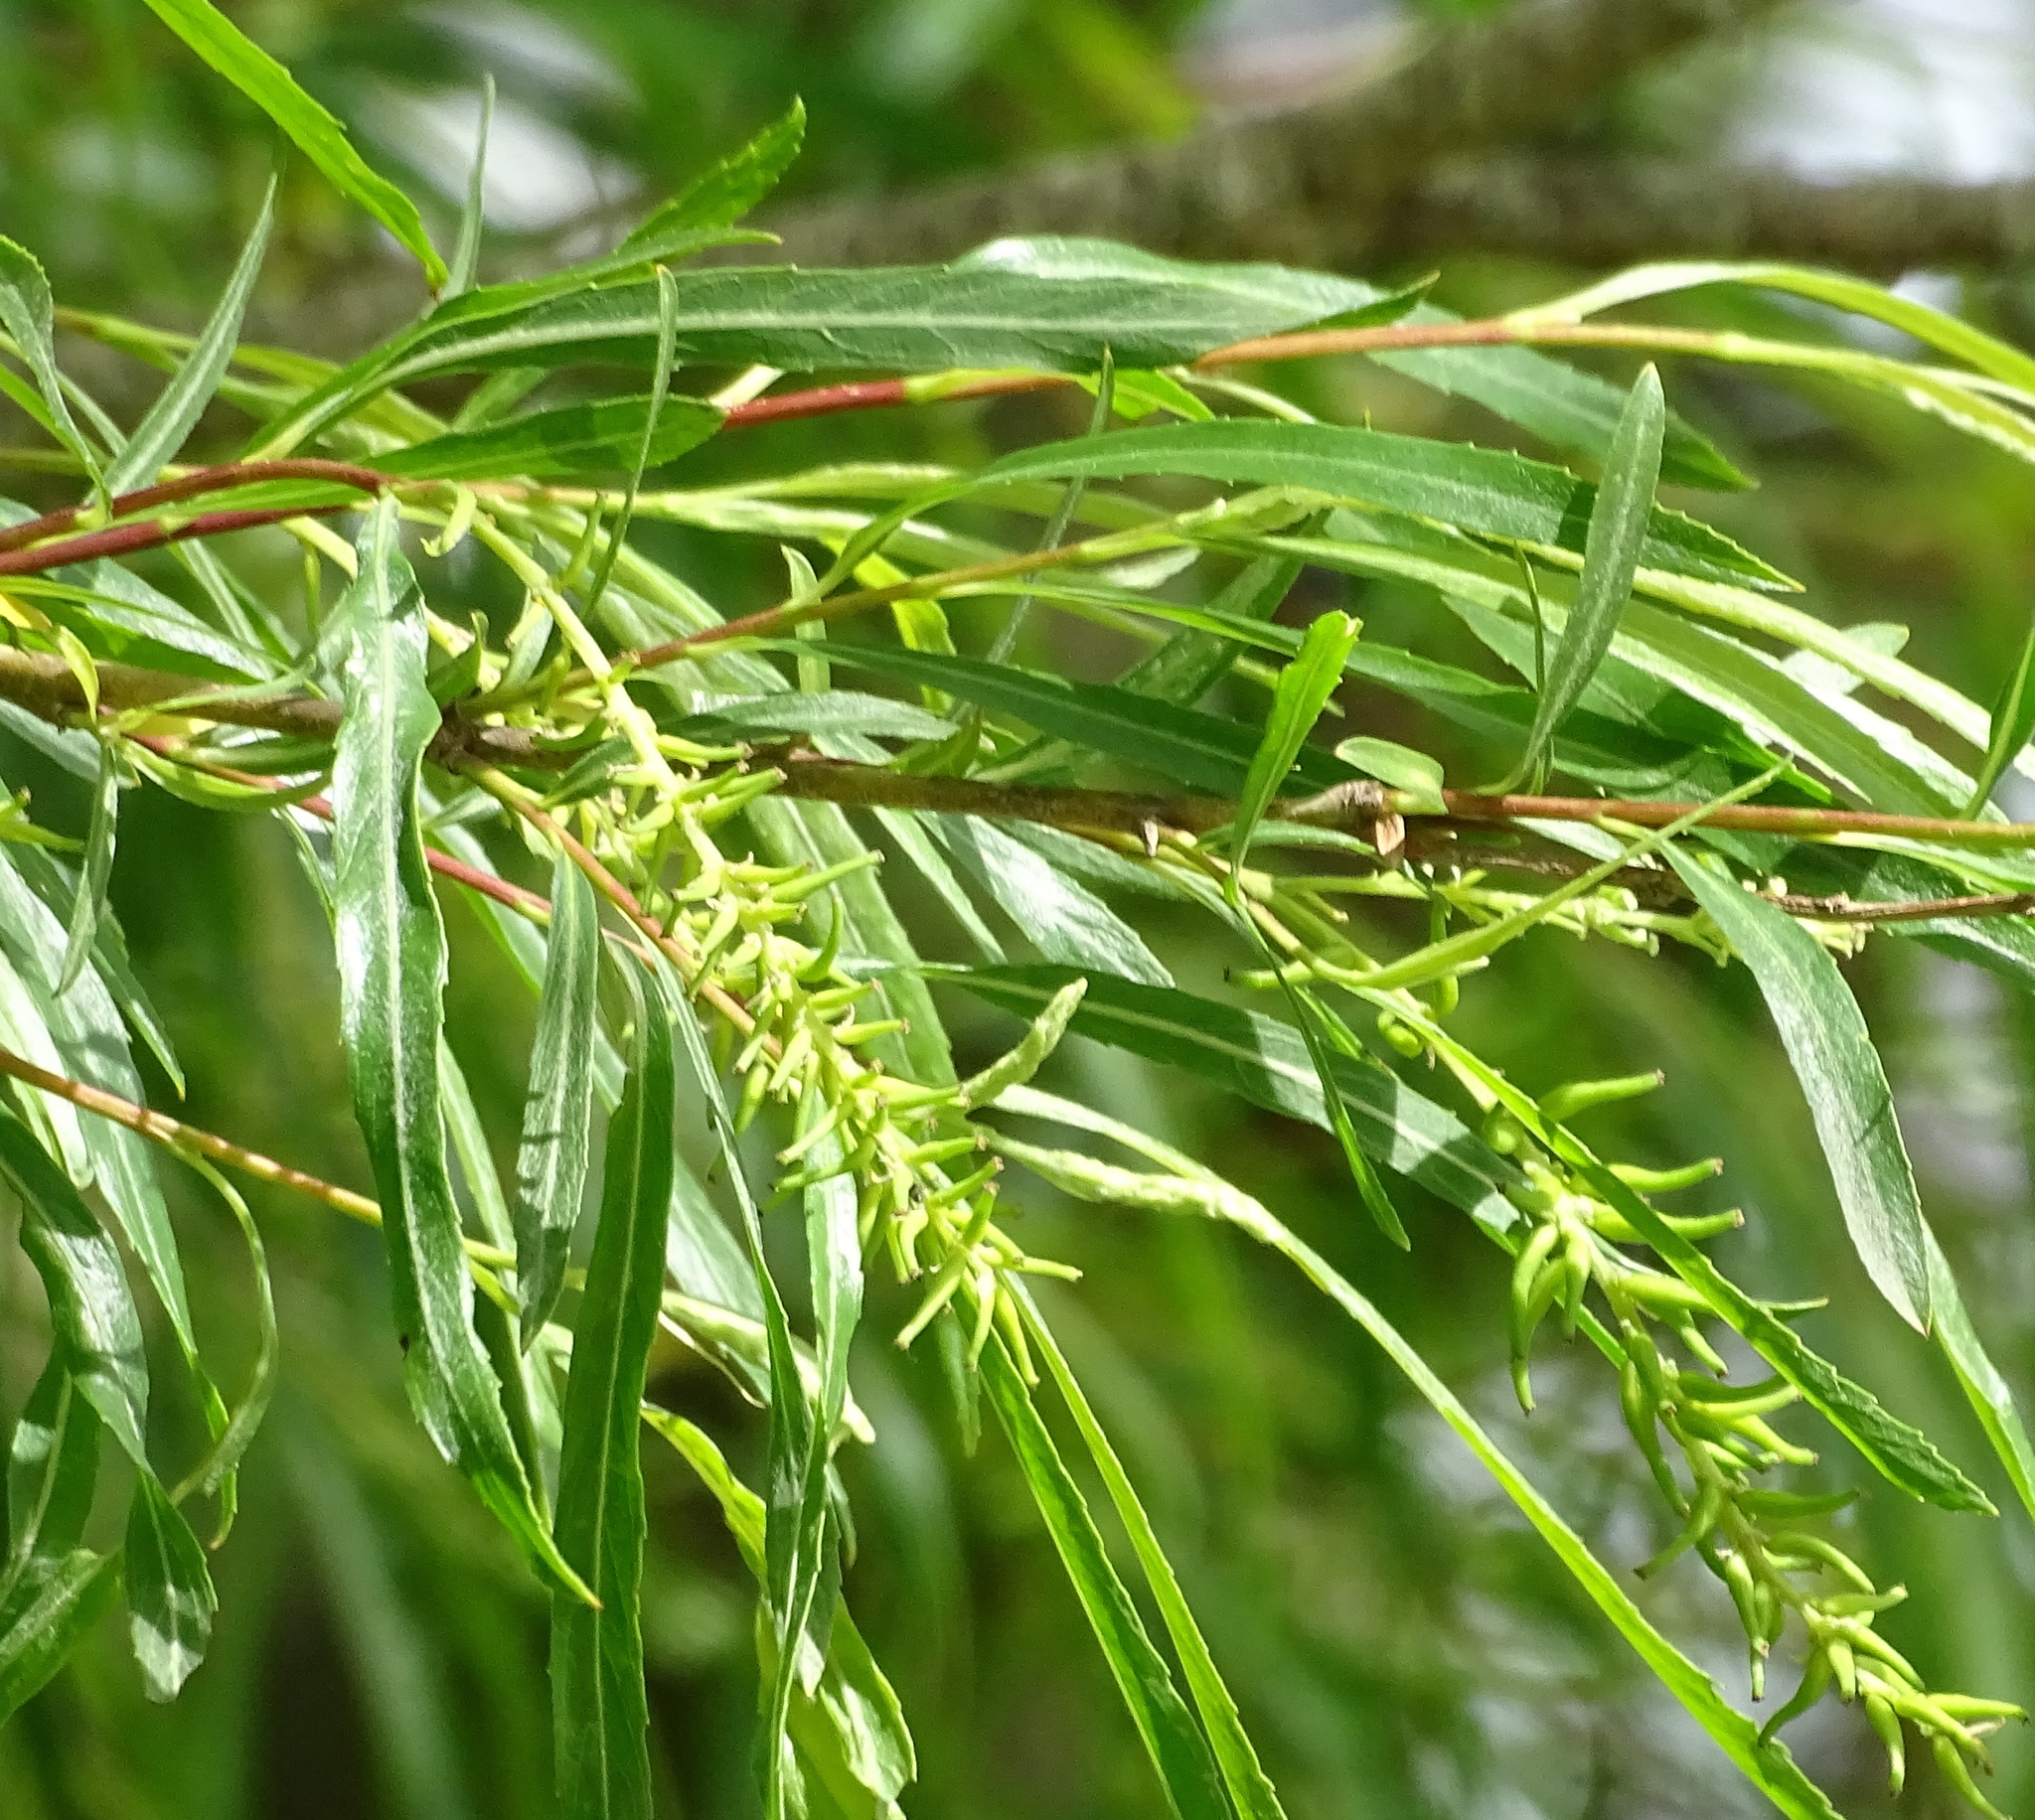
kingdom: Plantae
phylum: Tracheophyta
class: Magnoliopsida
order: Malpighiales
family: Salicaceae
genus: Salix
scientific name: Salix interior
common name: Sandbar willow
